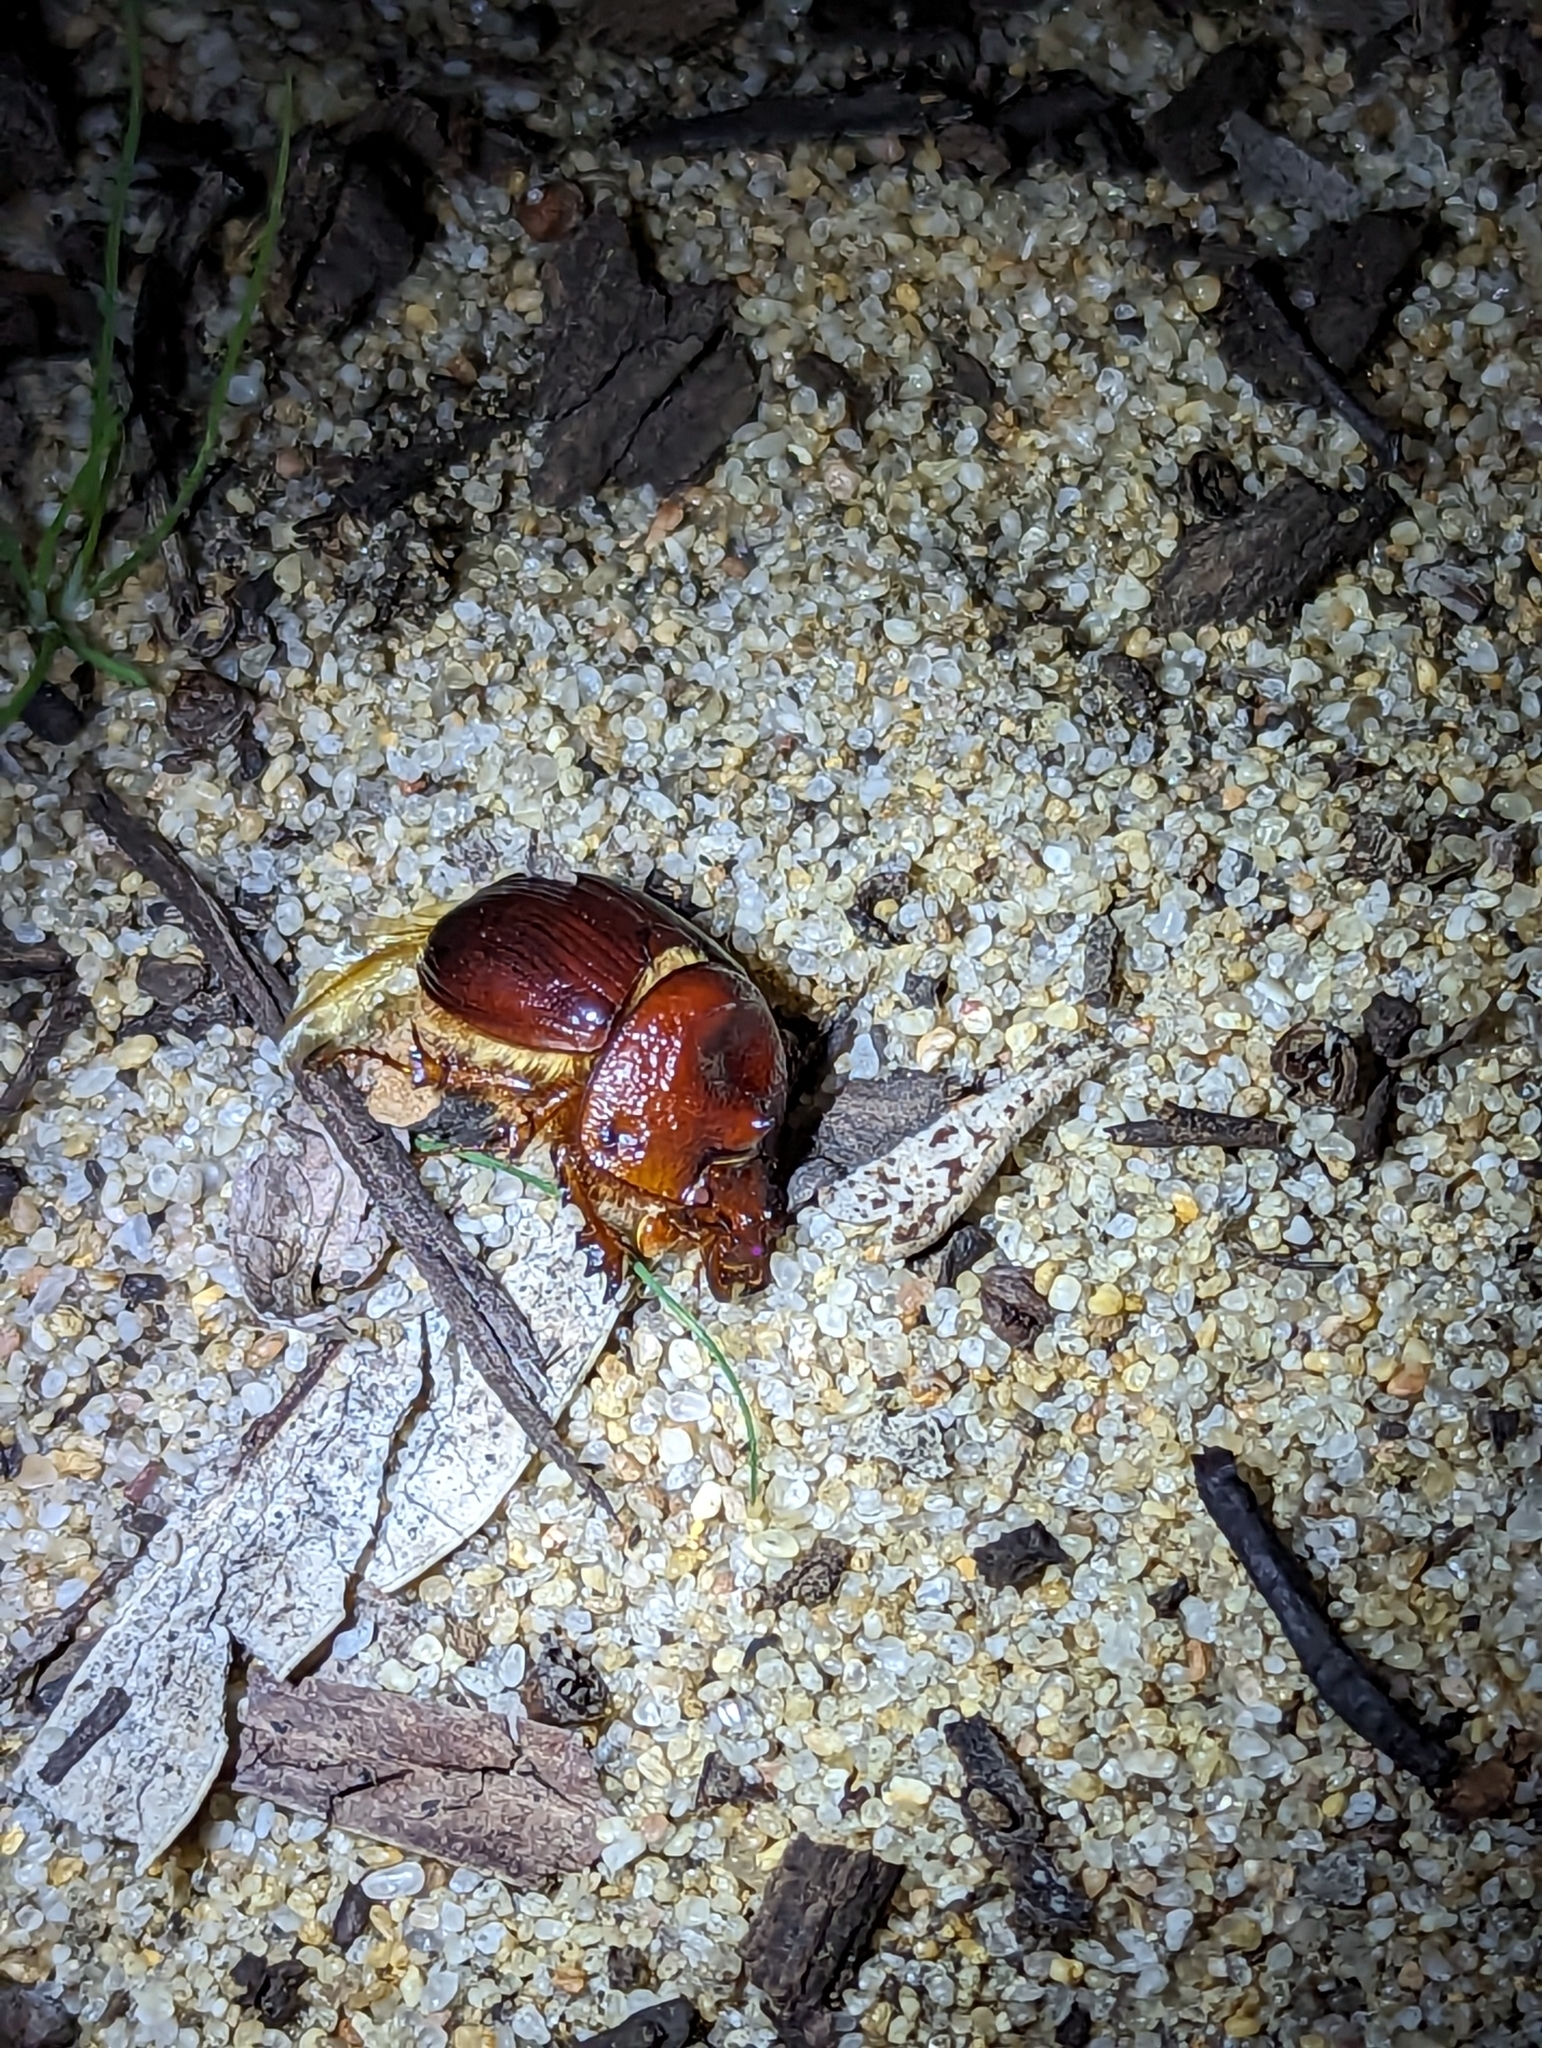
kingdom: Animalia
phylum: Arthropoda
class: Insecta
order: Coleoptera
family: Geotrupidae
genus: Bolborhachium
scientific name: Bolborhachium bainbridgii
